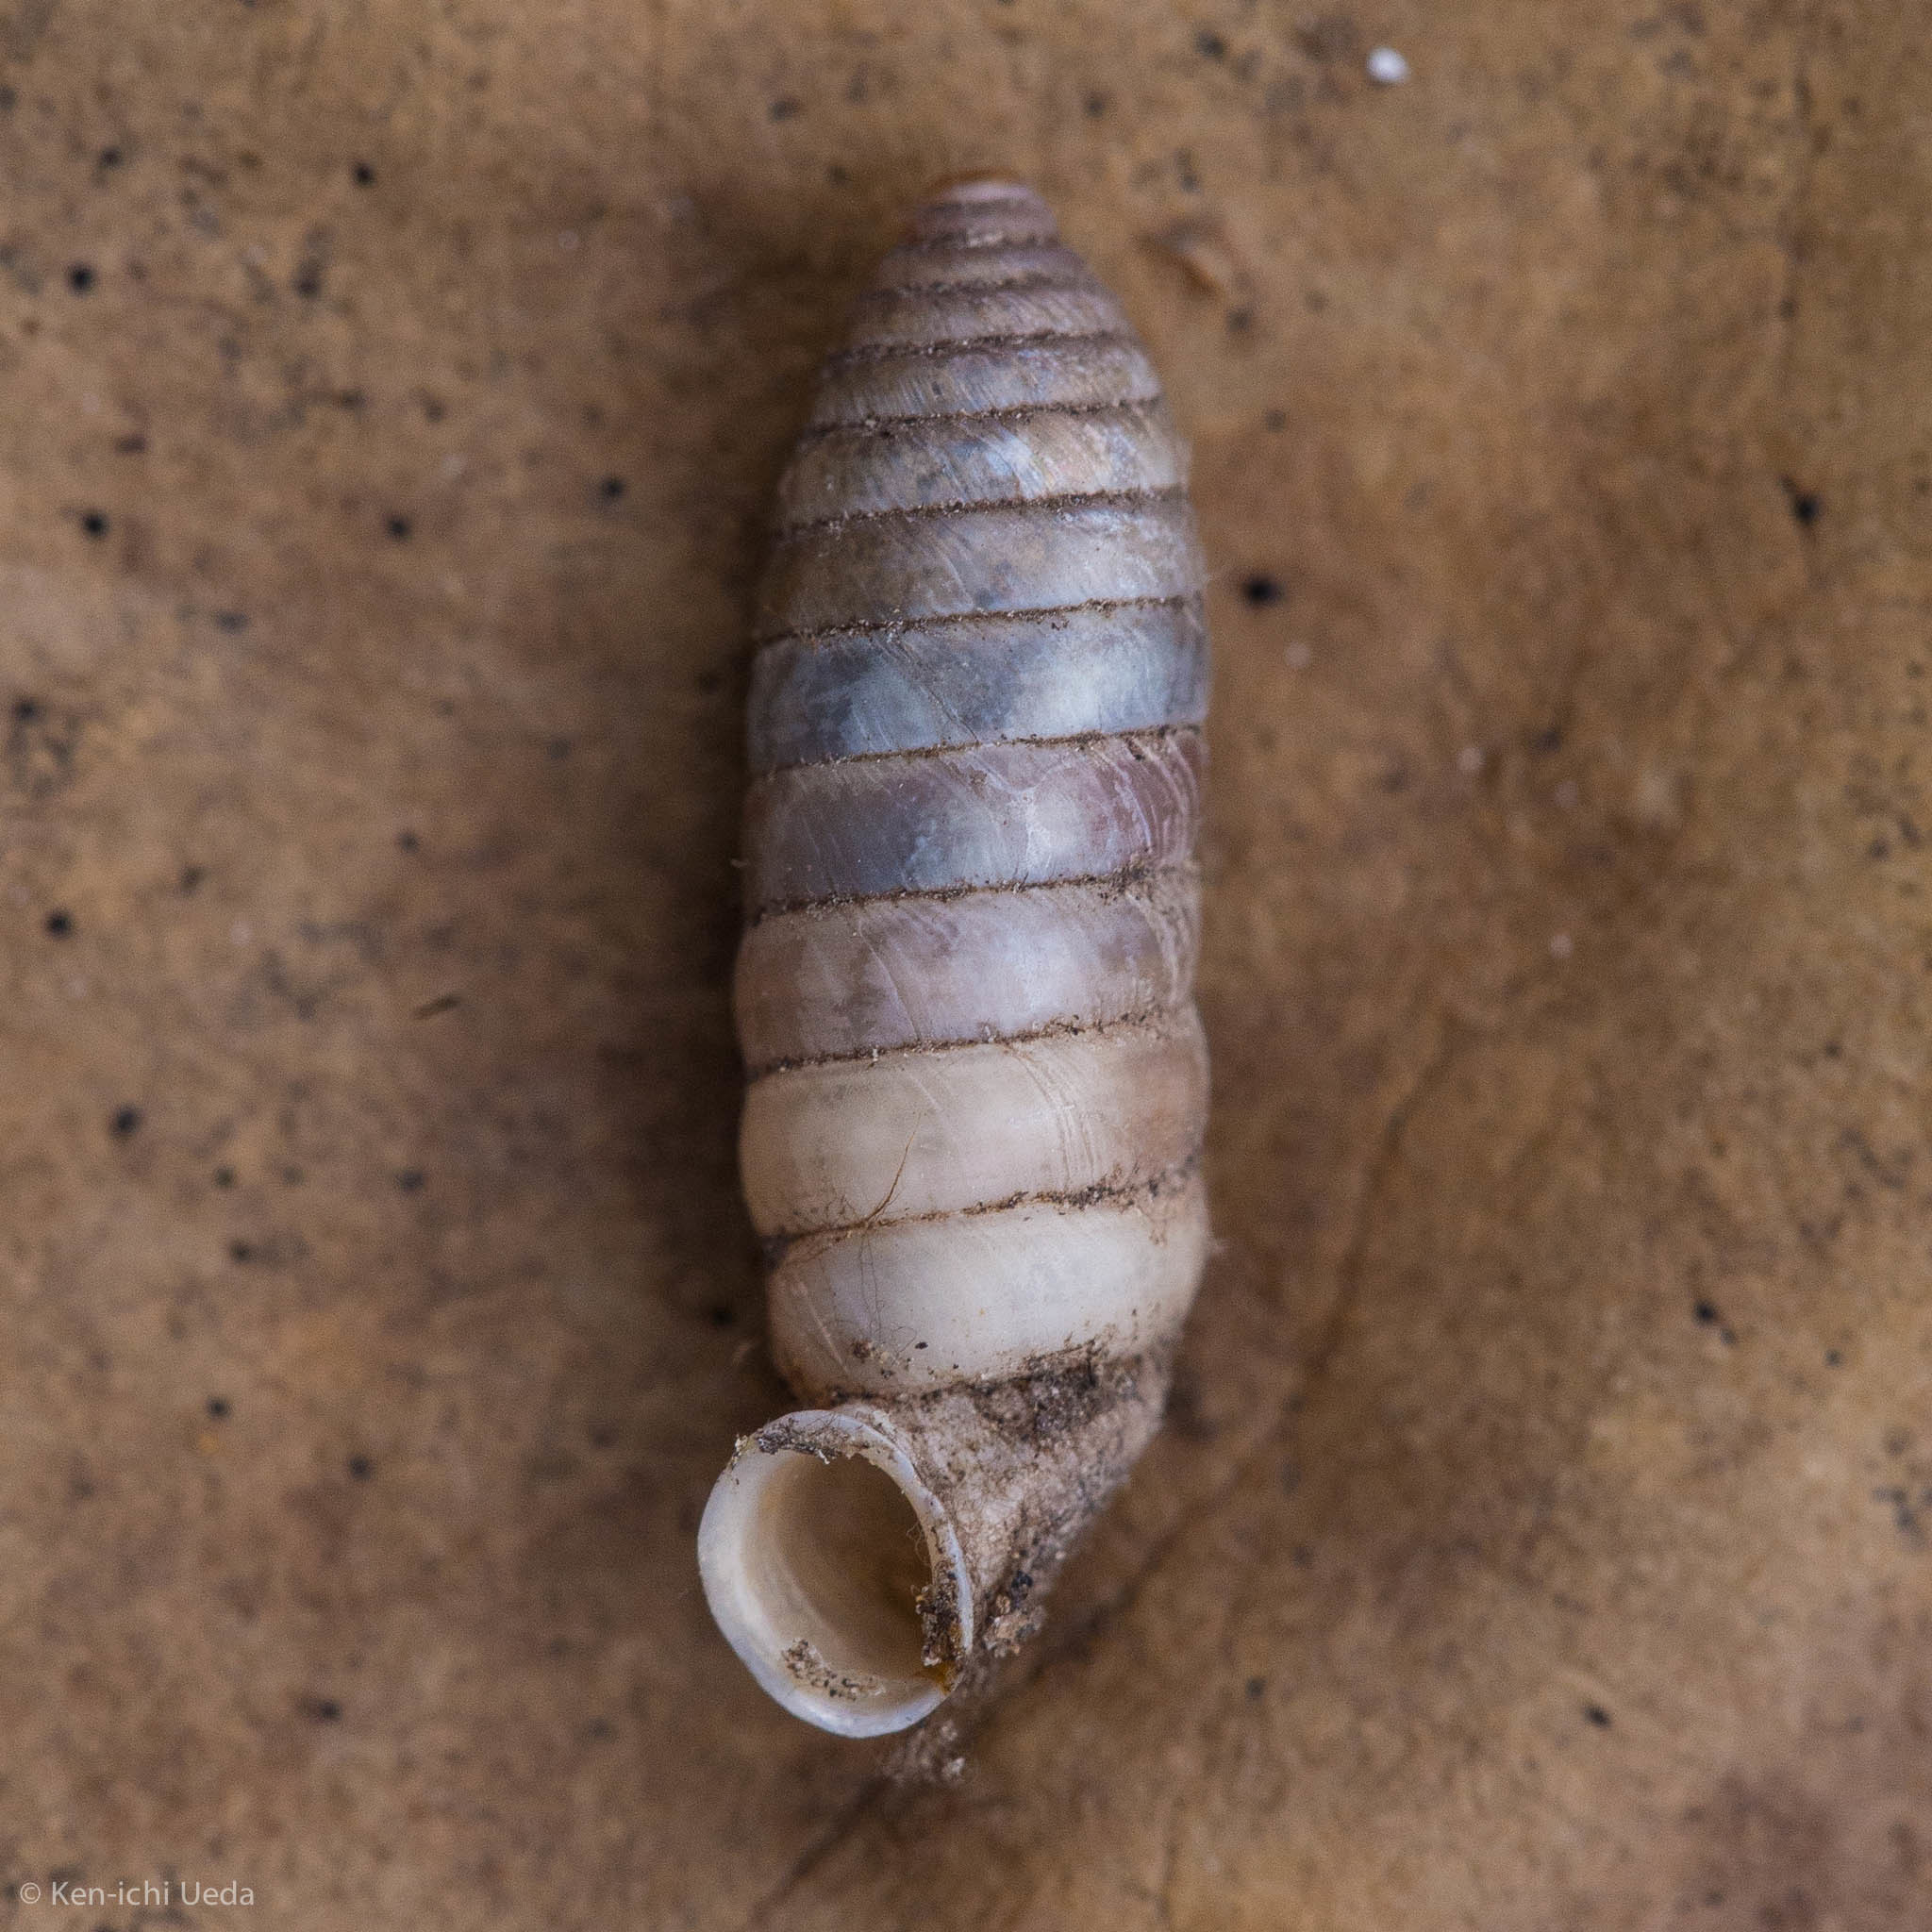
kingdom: Animalia
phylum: Mollusca
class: Gastropoda
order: Stylommatophora
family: Holospiridae
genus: Metastoma
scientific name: Metastoma roemeri
